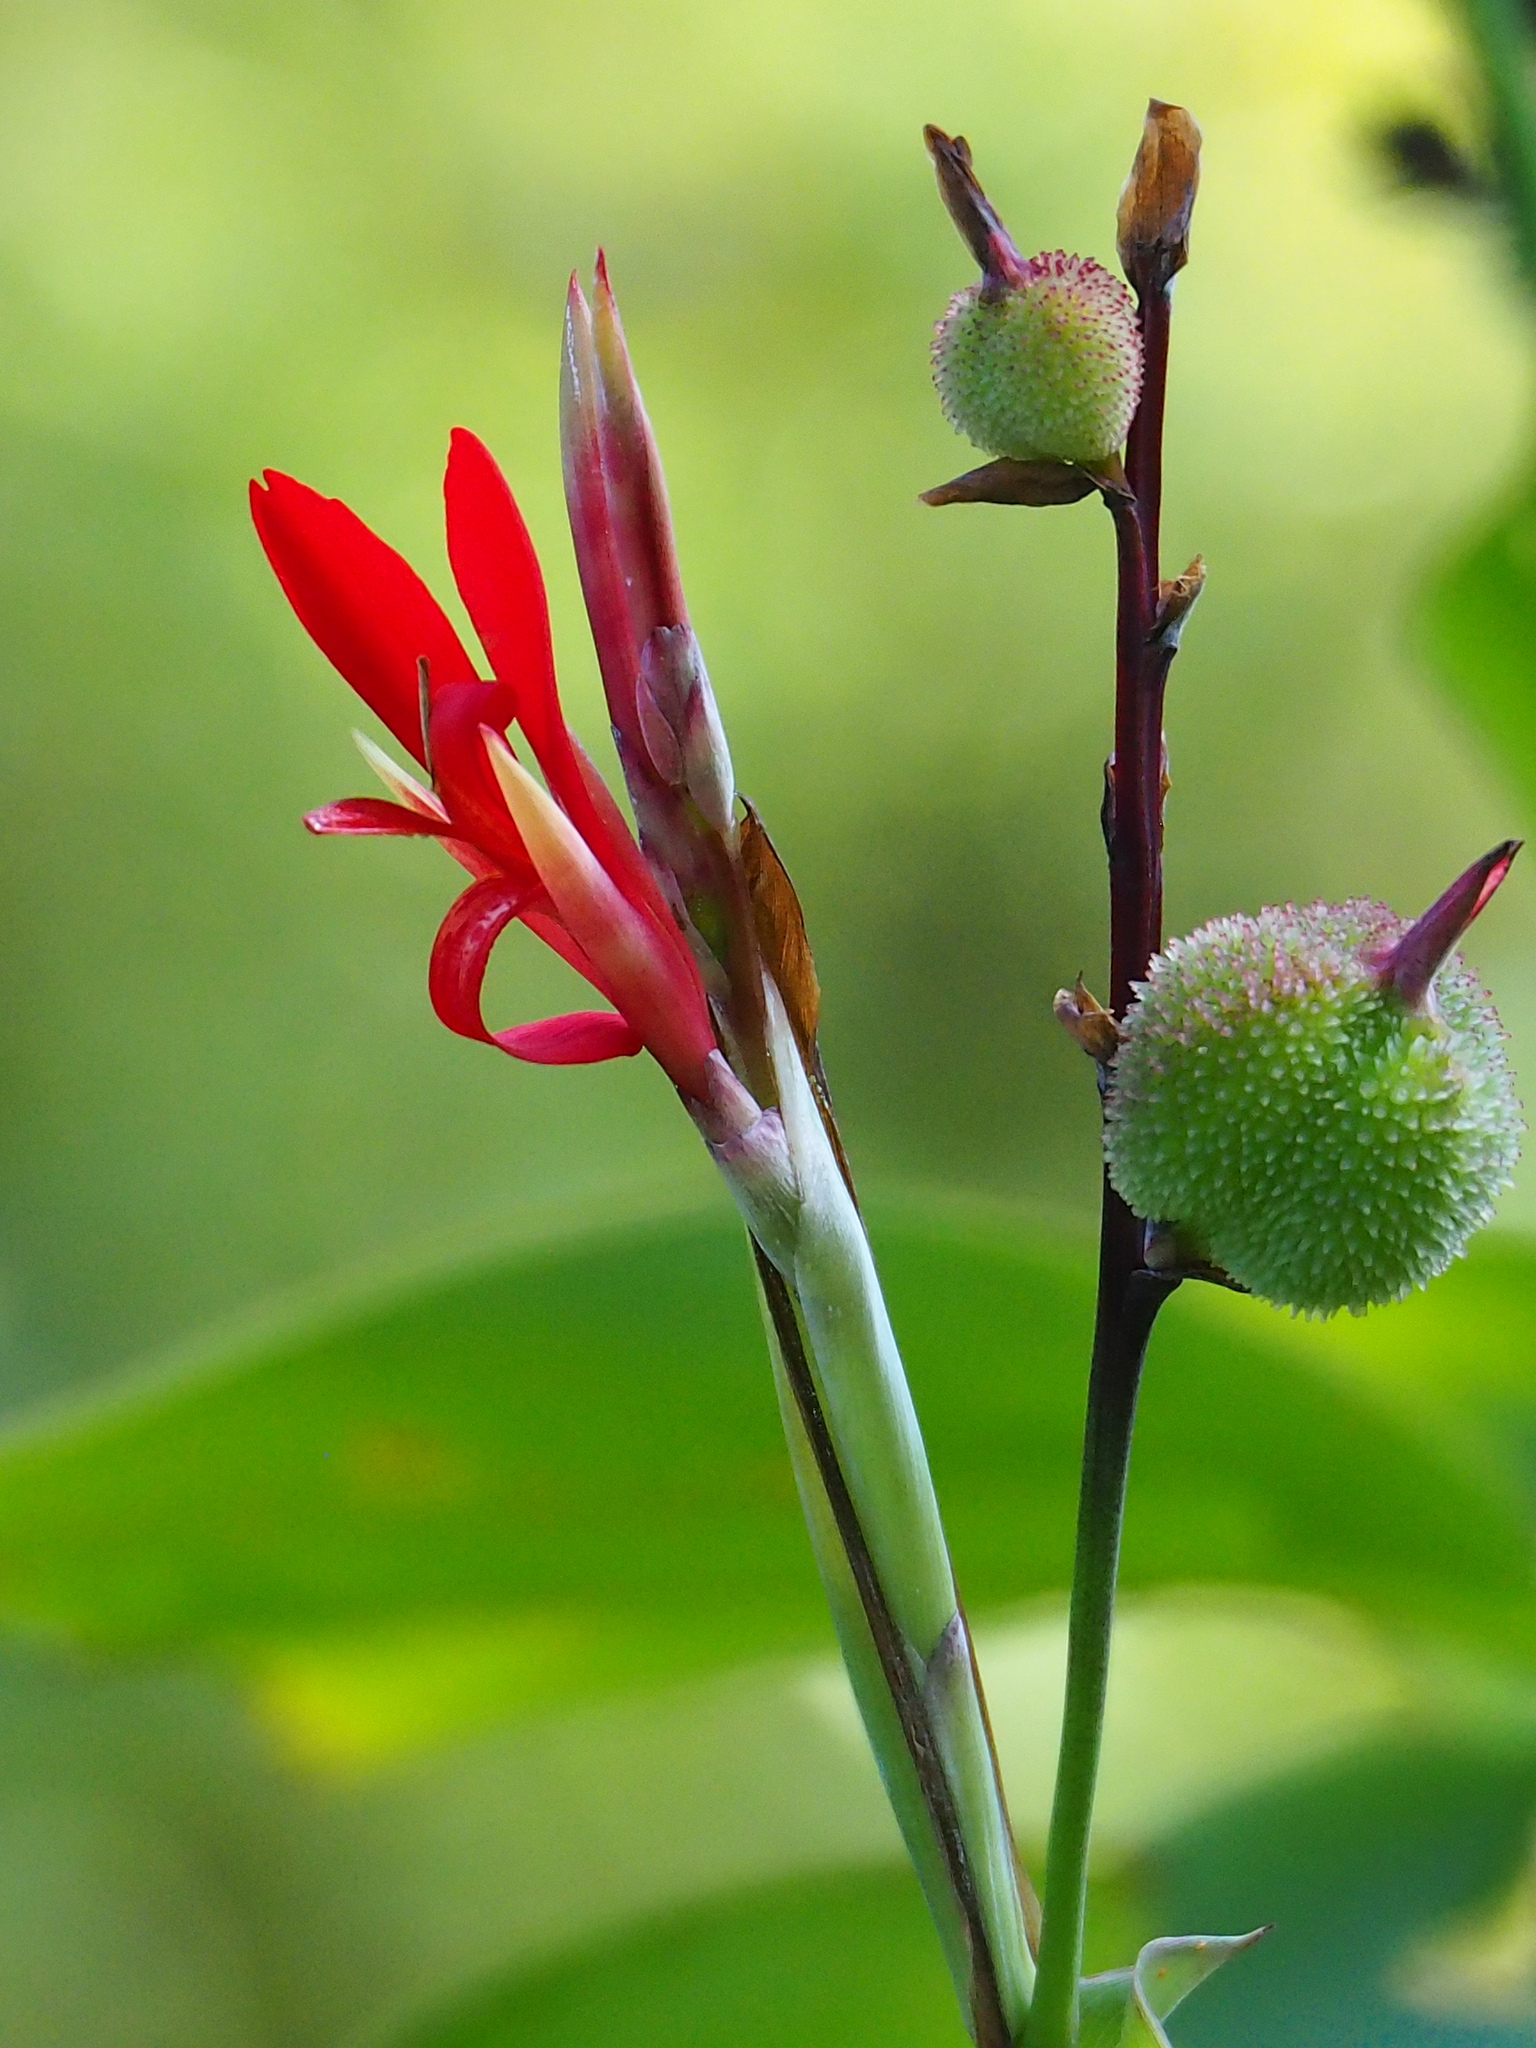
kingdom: Plantae
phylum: Tracheophyta
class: Liliopsida
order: Zingiberales
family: Cannaceae
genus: Canna
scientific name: Canna indica
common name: Indian shot
